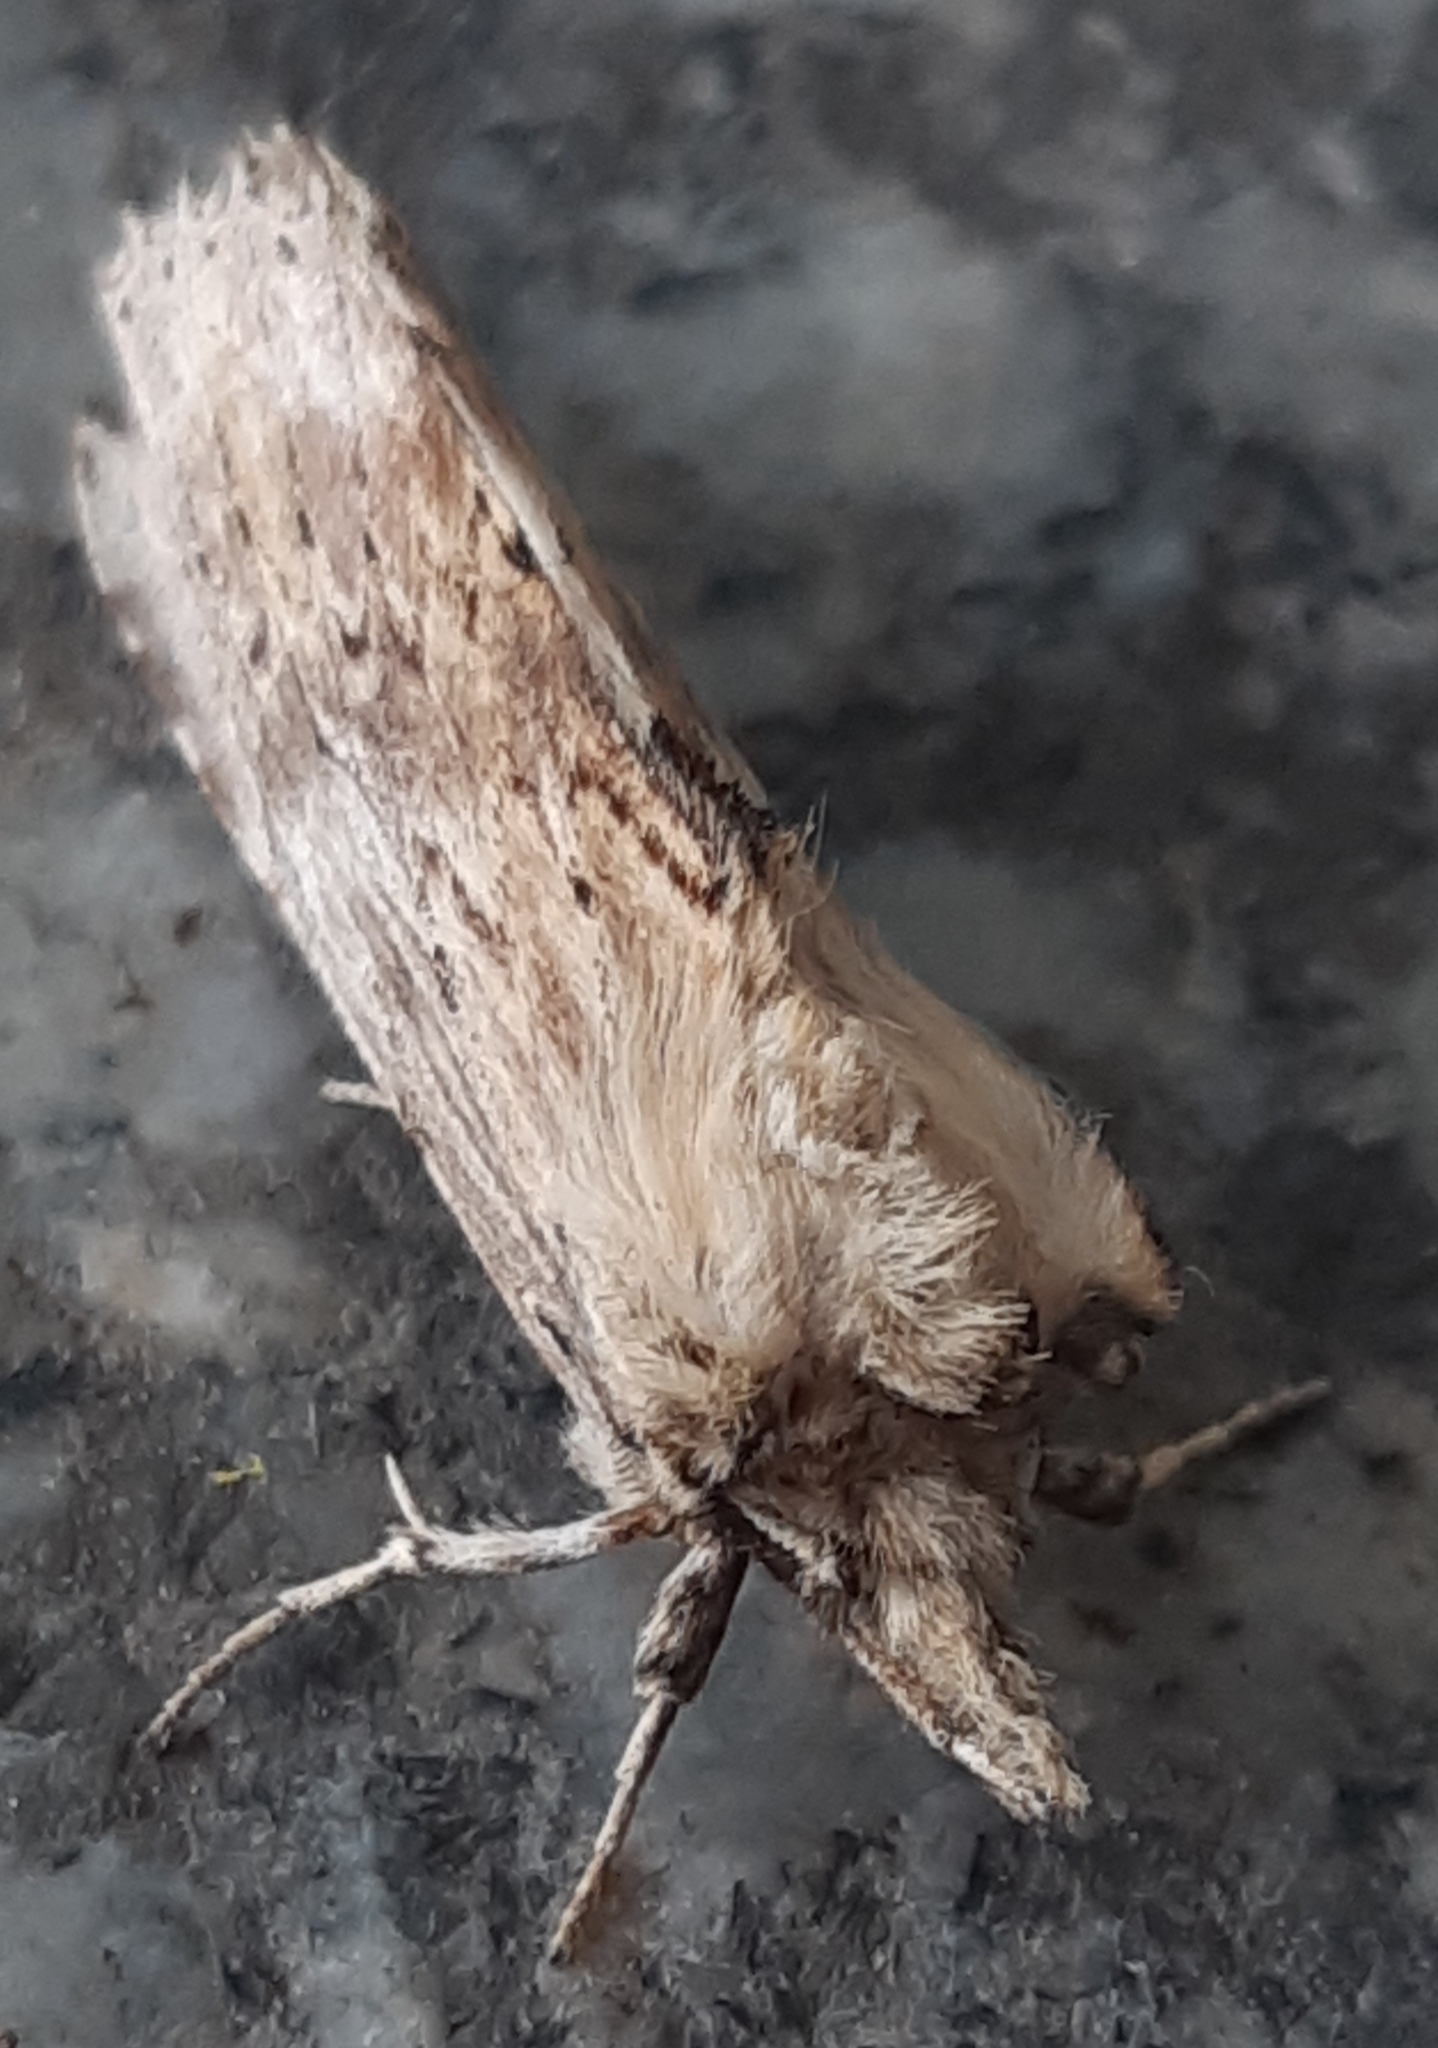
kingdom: Animalia
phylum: Arthropoda
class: Insecta
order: Lepidoptera
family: Notodontidae
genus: Pterostoma
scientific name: Pterostoma palpina
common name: Pale prominent
